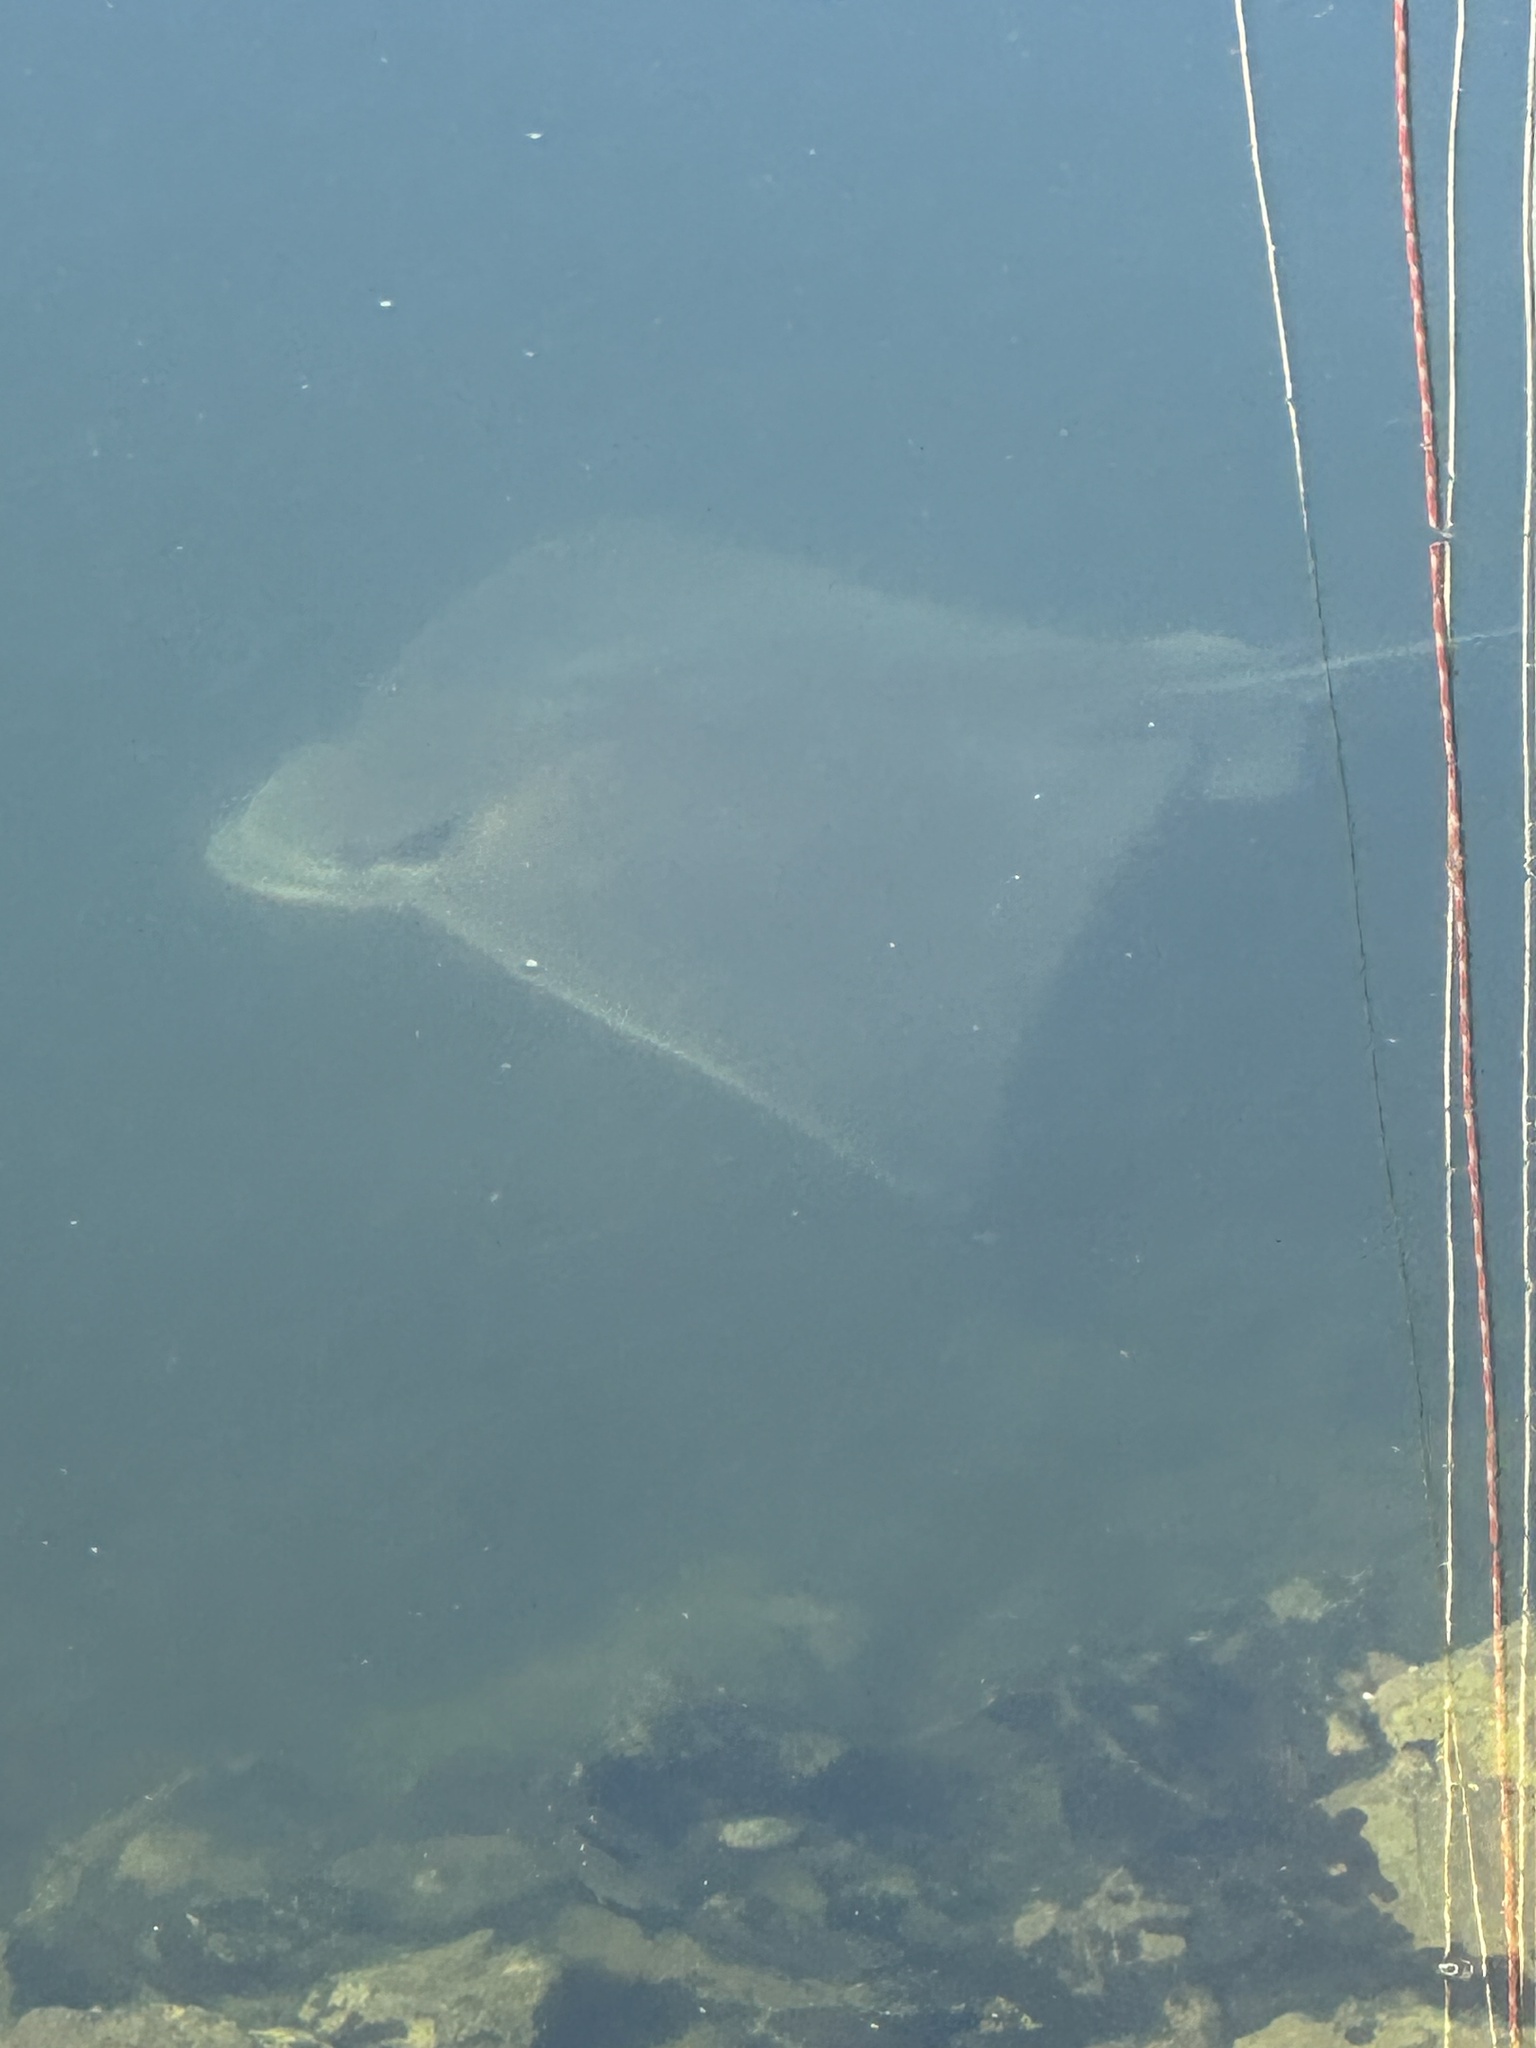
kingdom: Animalia
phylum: Chordata
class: Elasmobranchii
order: Myliobatiformes
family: Myliobatidae
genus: Myliobatis
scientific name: Myliobatis californica
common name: Bat ray
